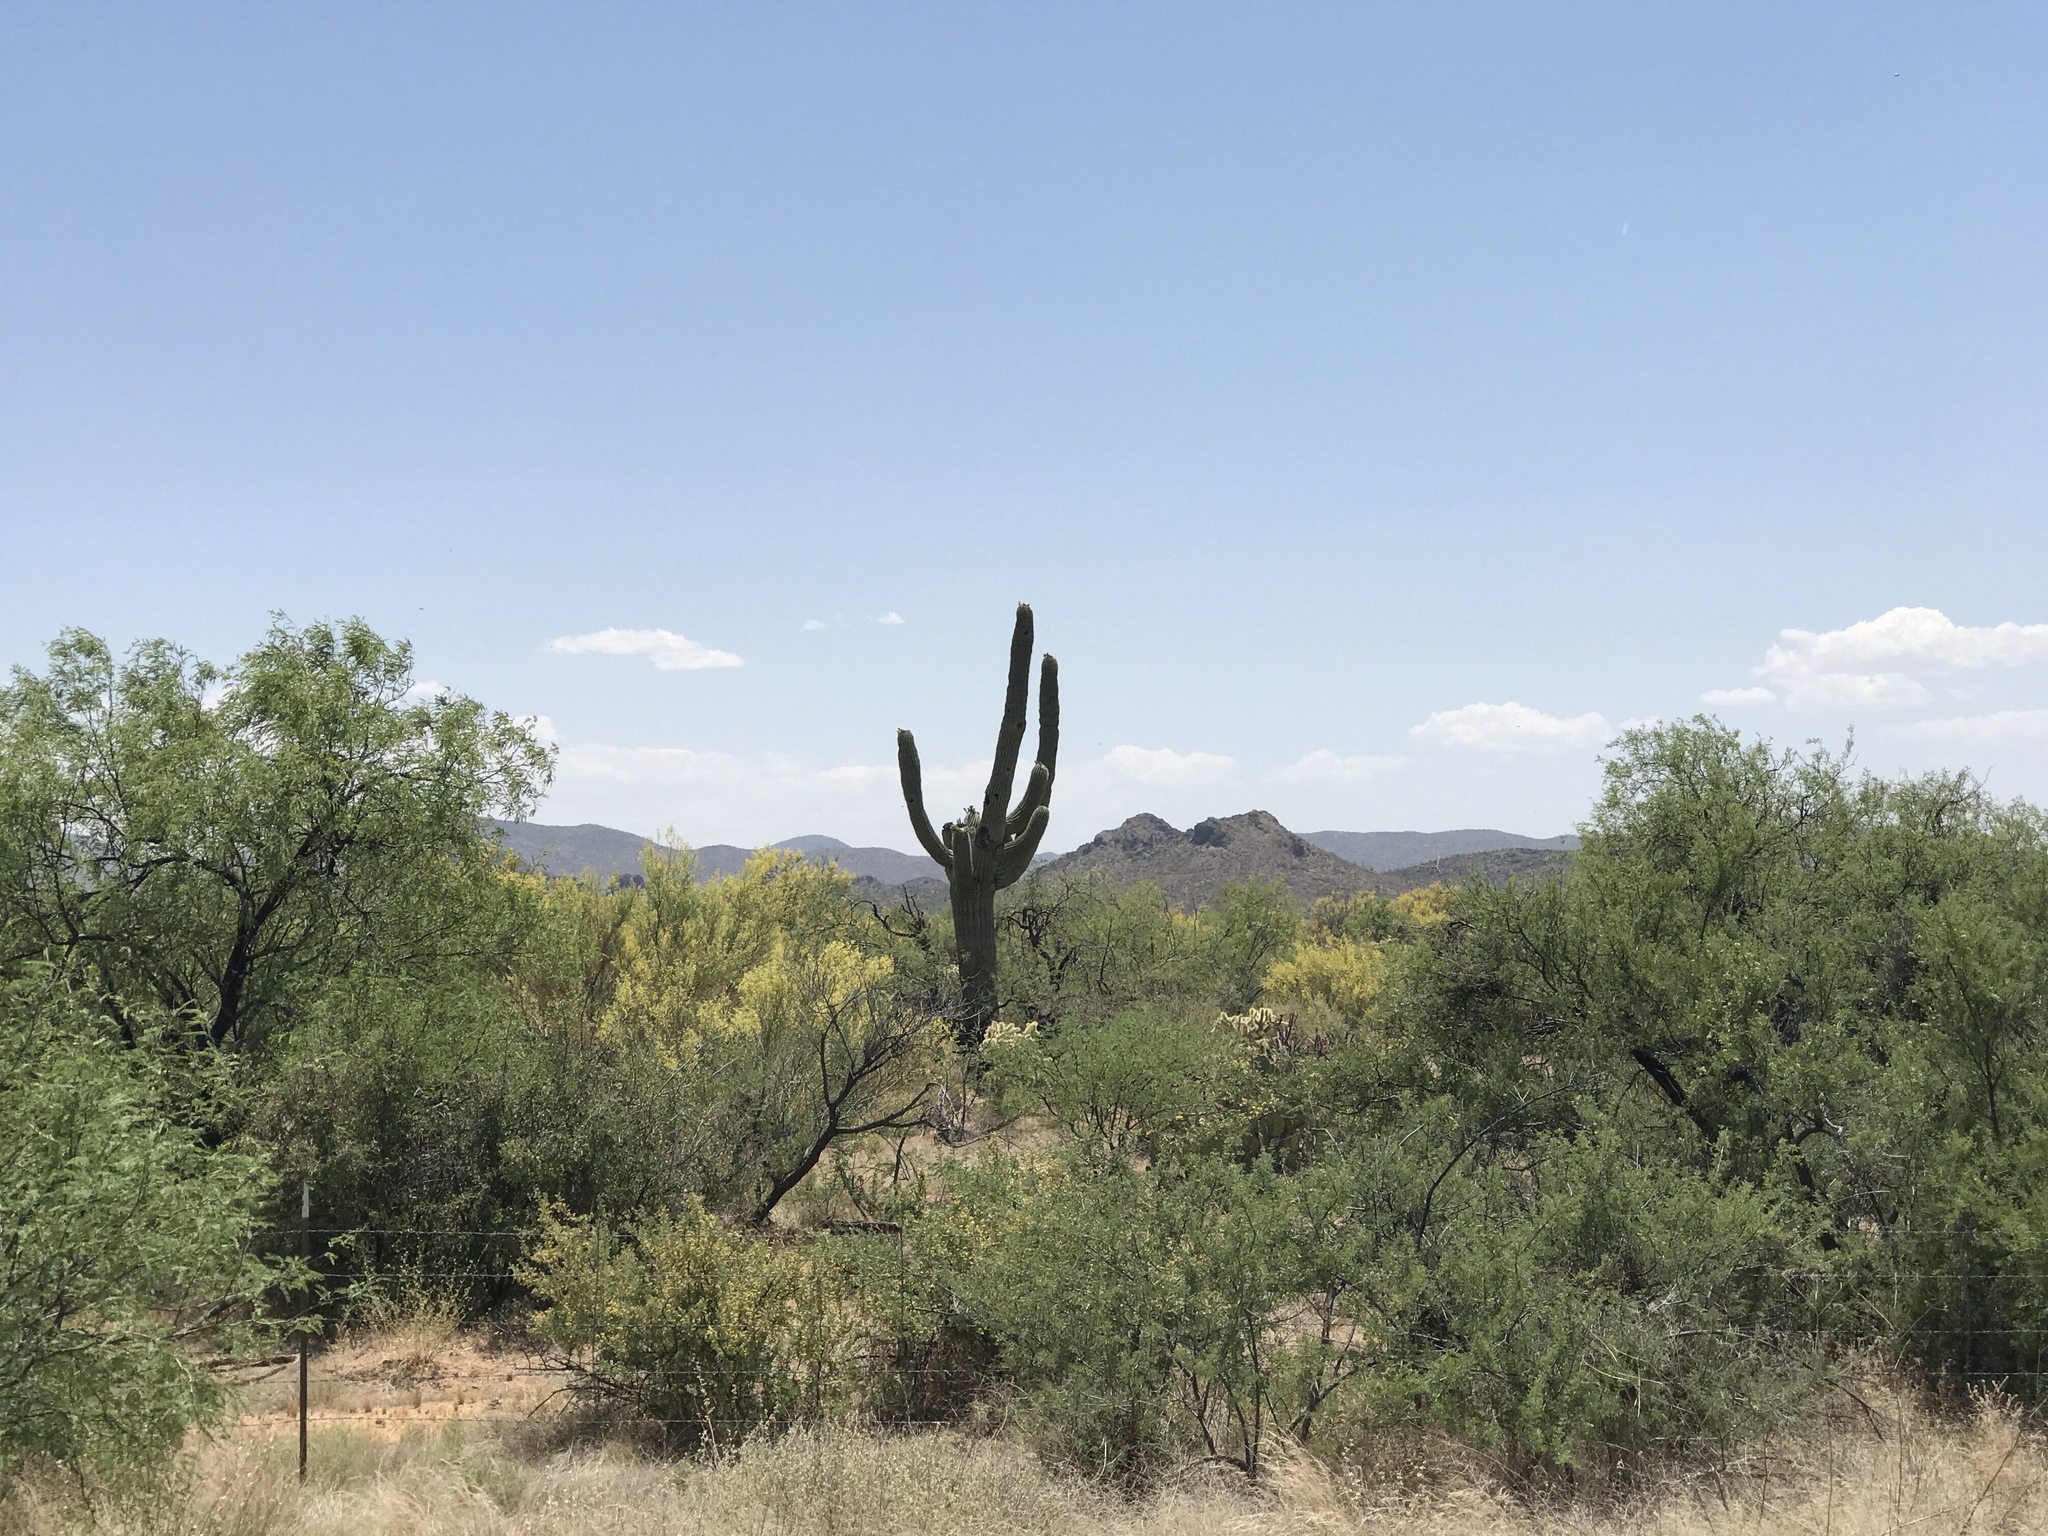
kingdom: Plantae
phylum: Tracheophyta
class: Magnoliopsida
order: Caryophyllales
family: Cactaceae
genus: Carnegiea
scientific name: Carnegiea gigantea
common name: Saguaro
